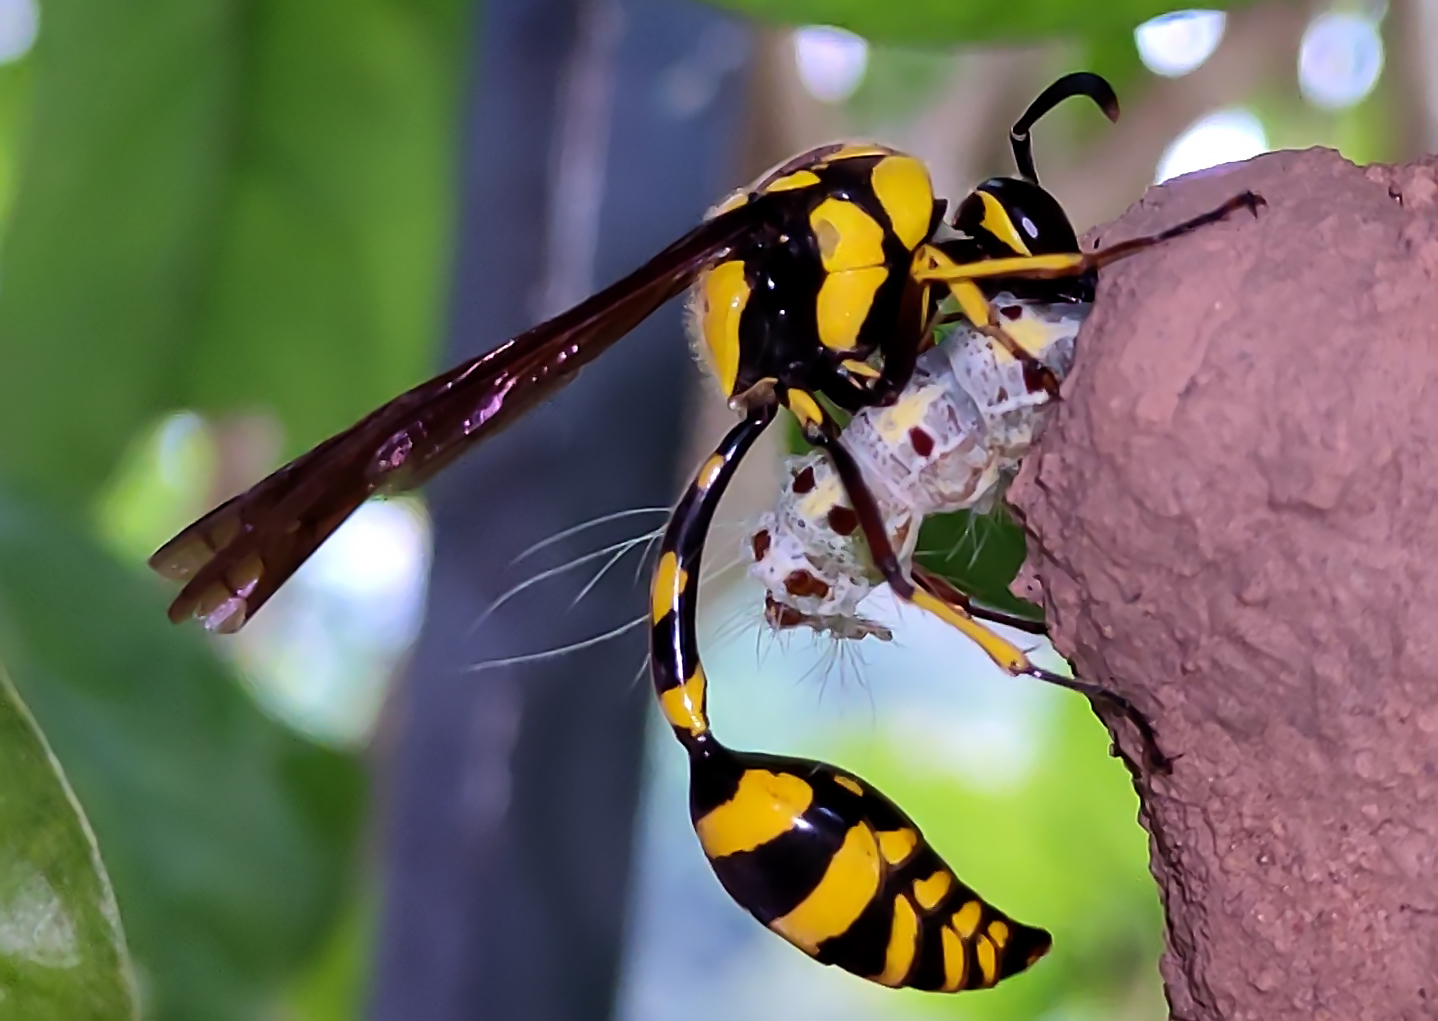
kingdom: Animalia
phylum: Arthropoda
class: Insecta
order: Hymenoptera
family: Eumenidae
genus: Phimenes
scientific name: Phimenes flavopictus
